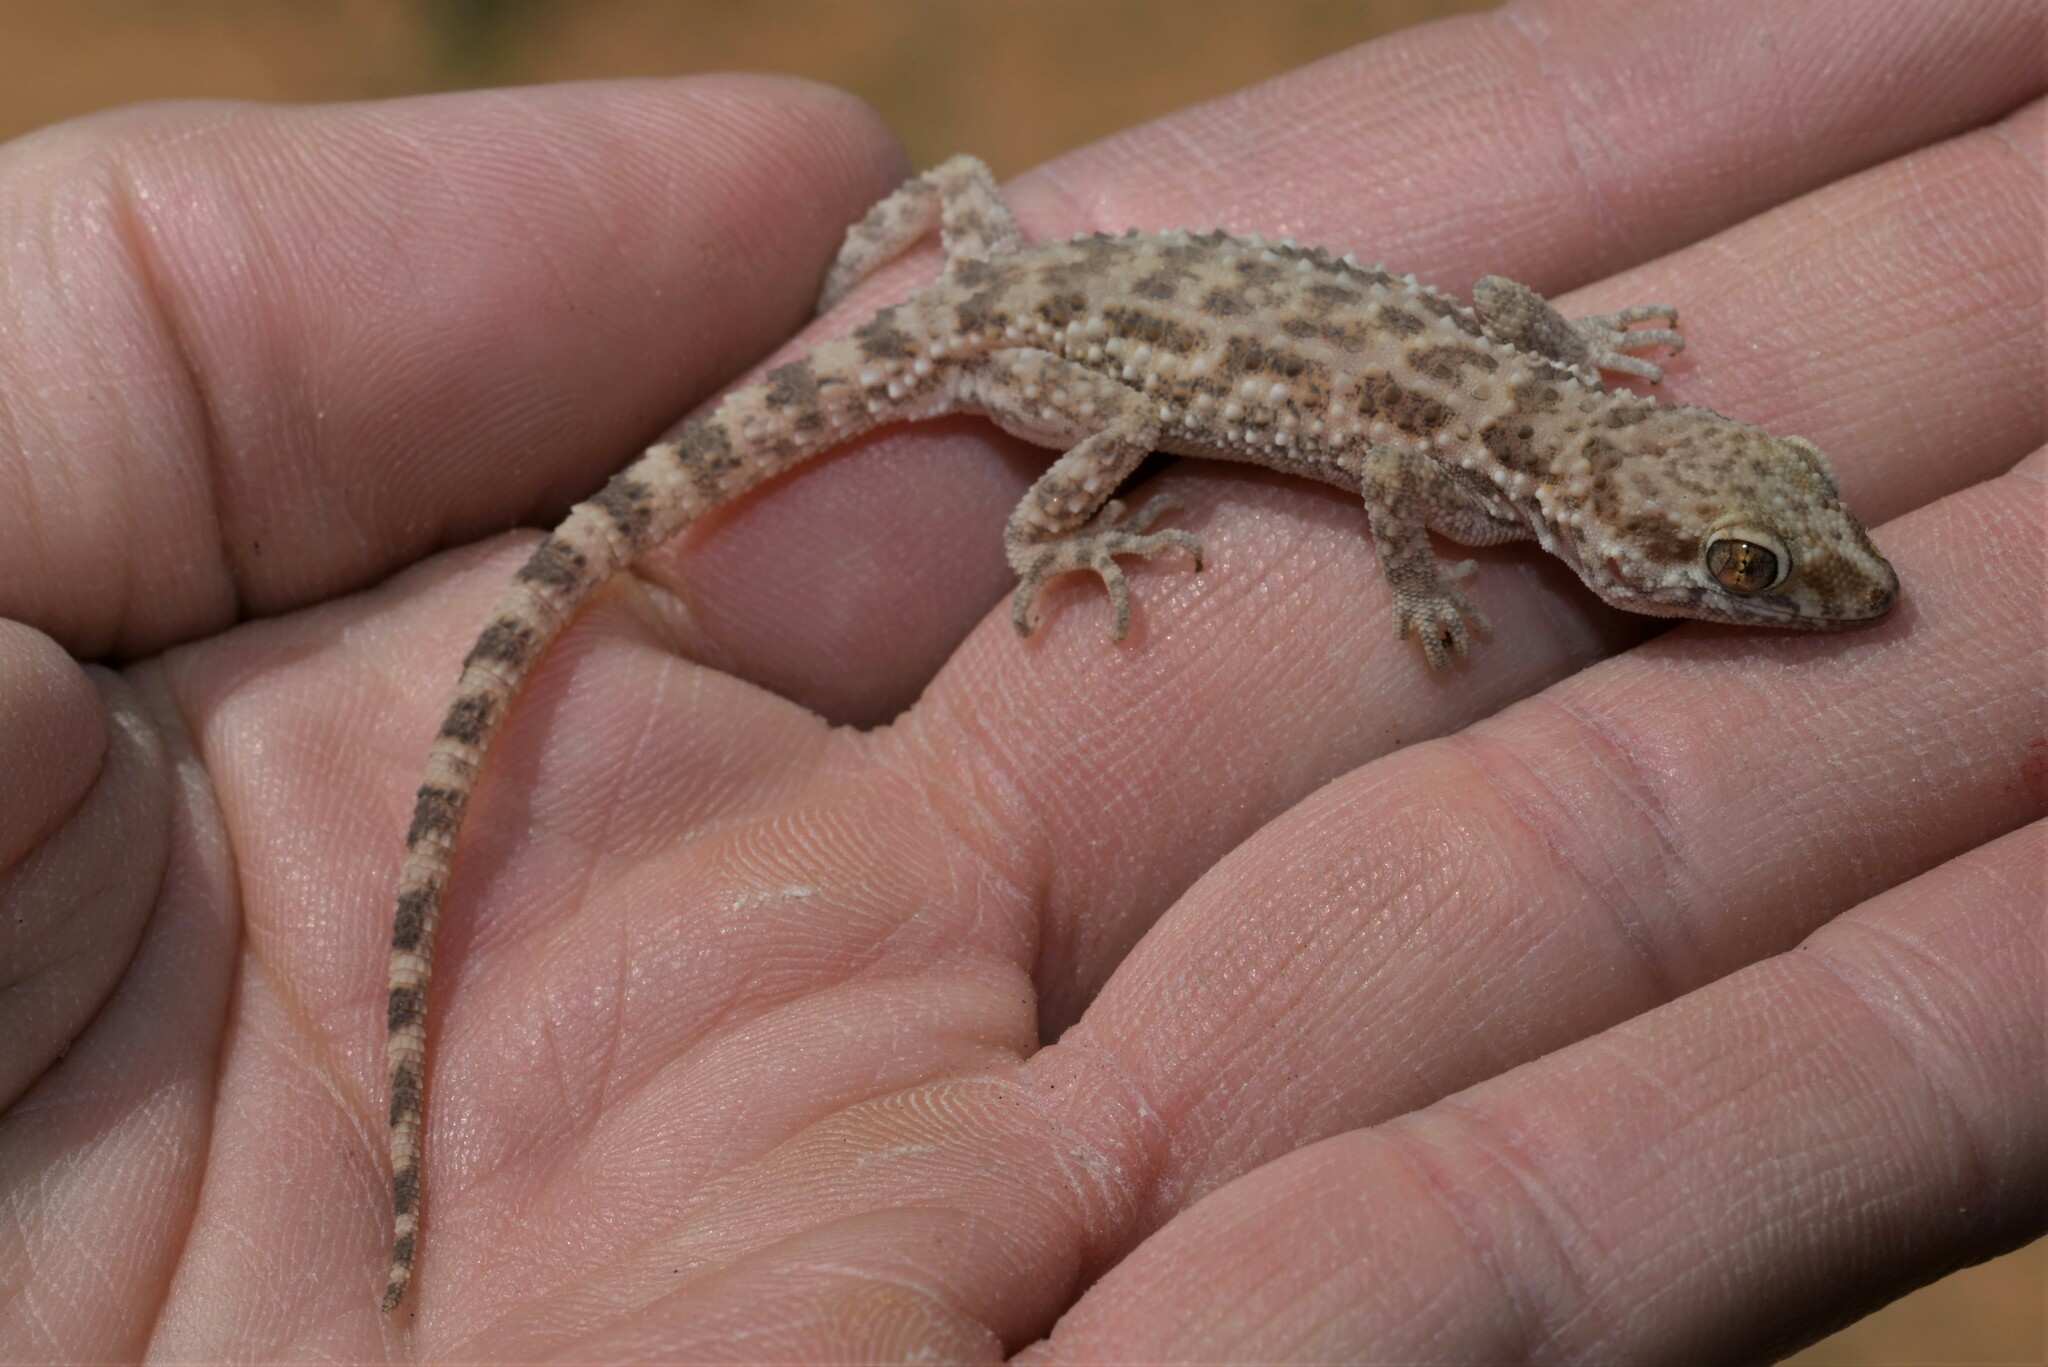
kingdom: Animalia
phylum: Chordata
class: Squamata
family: Gekkonidae
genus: Bunopus
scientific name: Bunopus tuberculatus
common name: Southern tuberculated gecko
